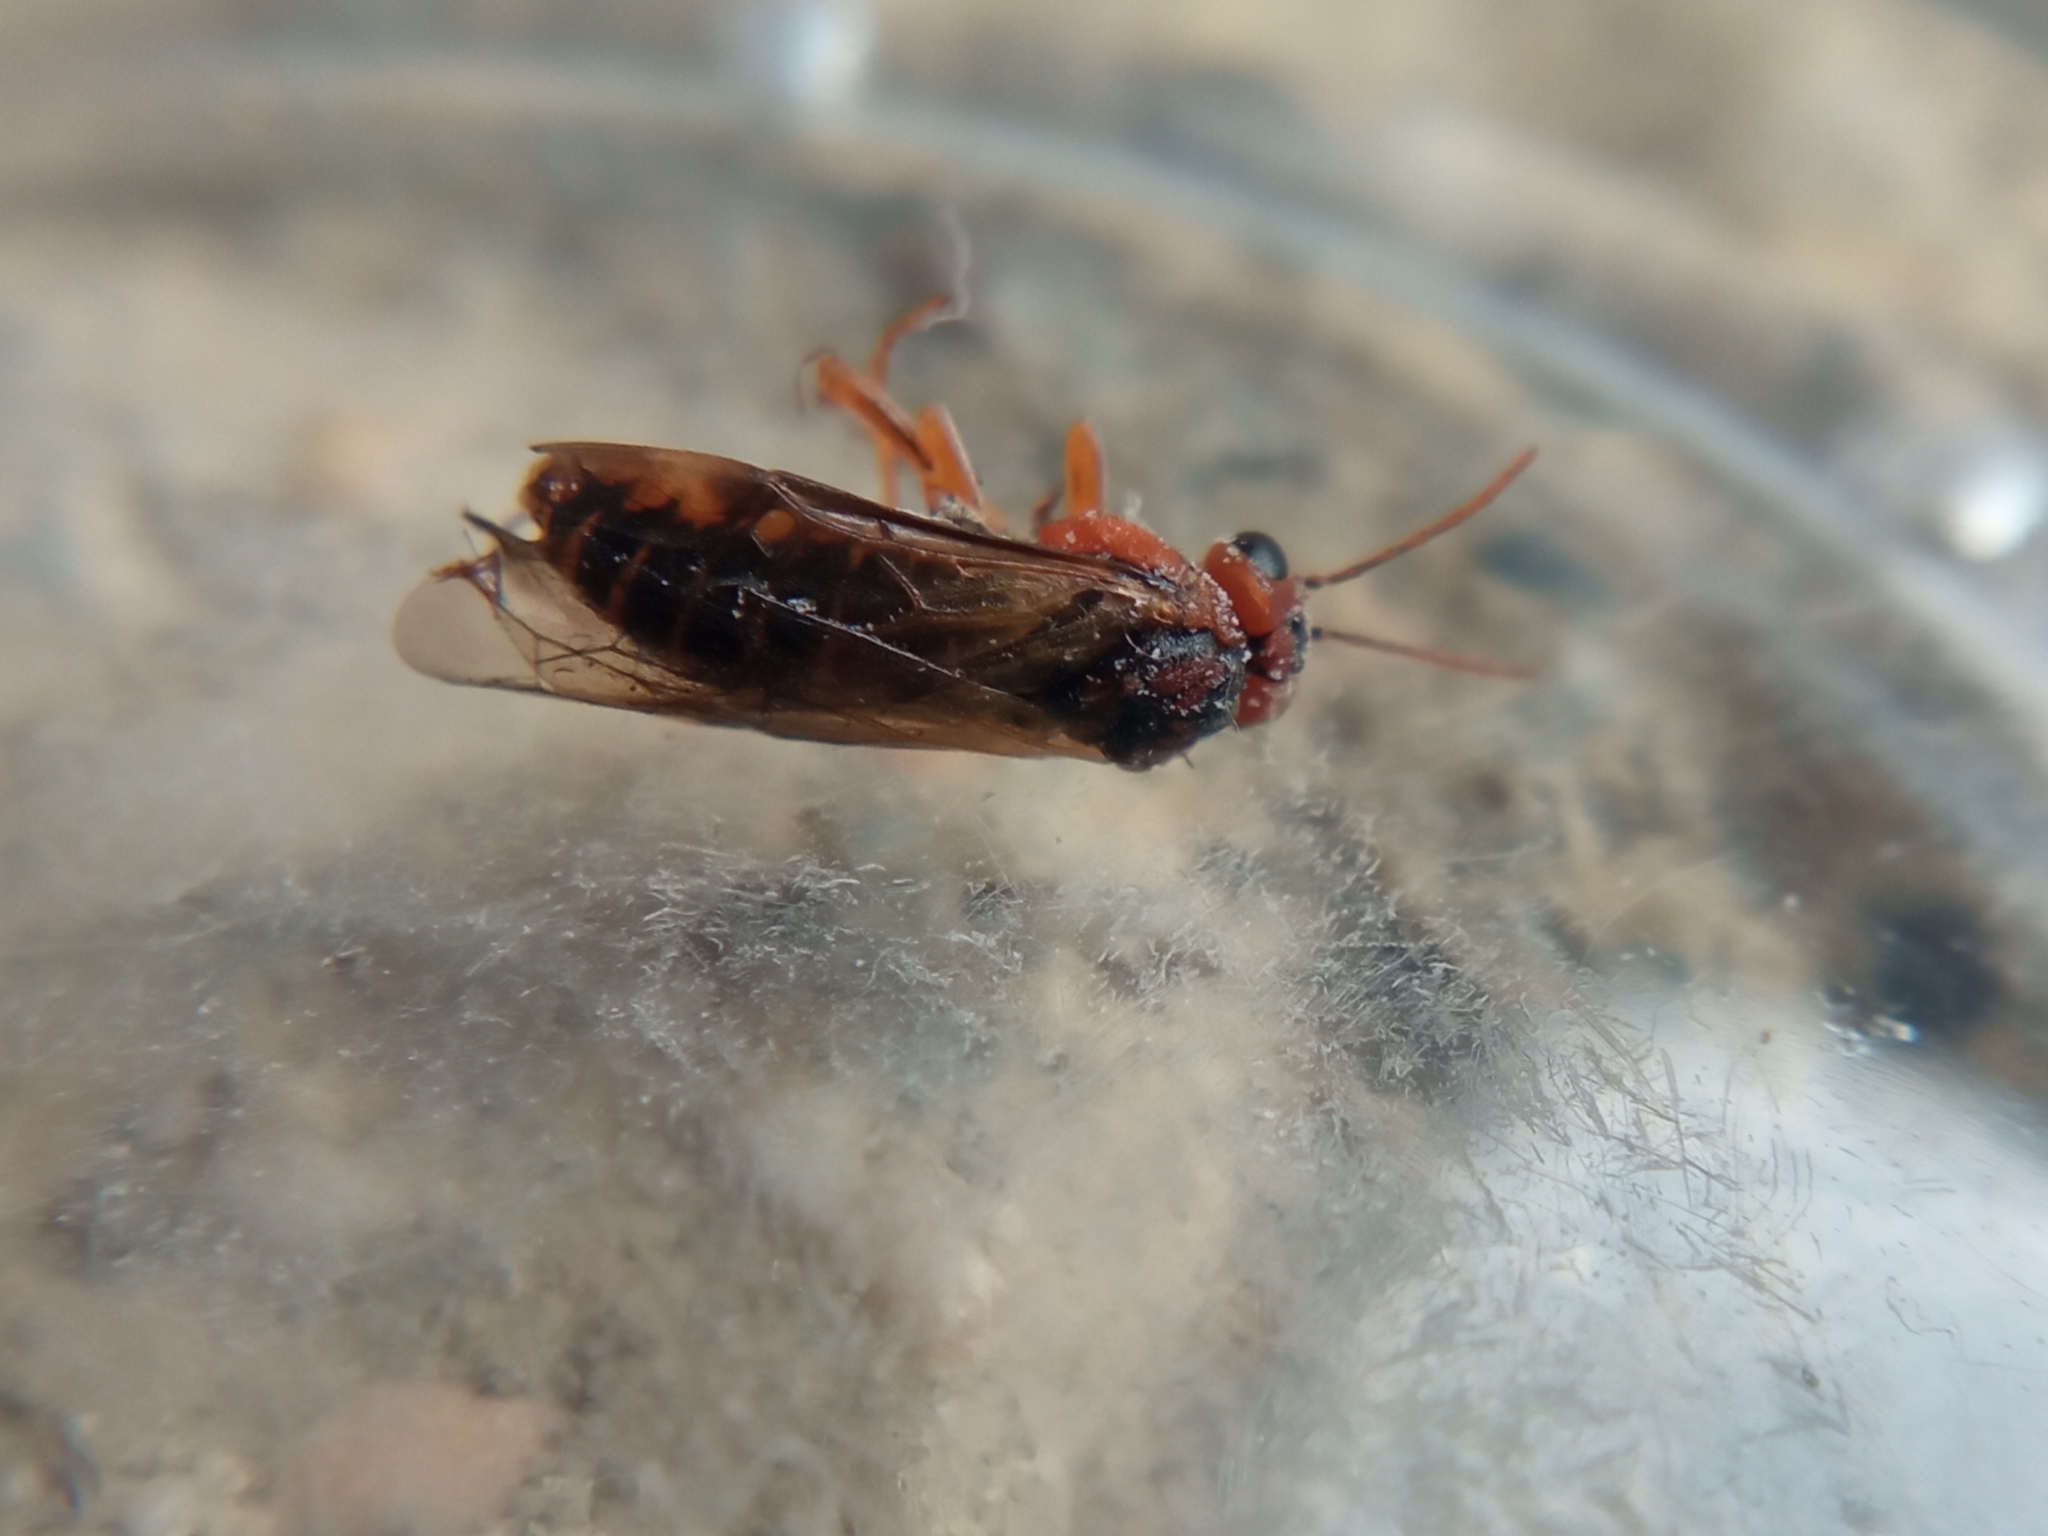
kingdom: Animalia
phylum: Arthropoda
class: Insecta
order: Hymenoptera
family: Tenthredinidae
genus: Hoplocampa
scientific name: Hoplocampa brevis
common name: Common sawfly
